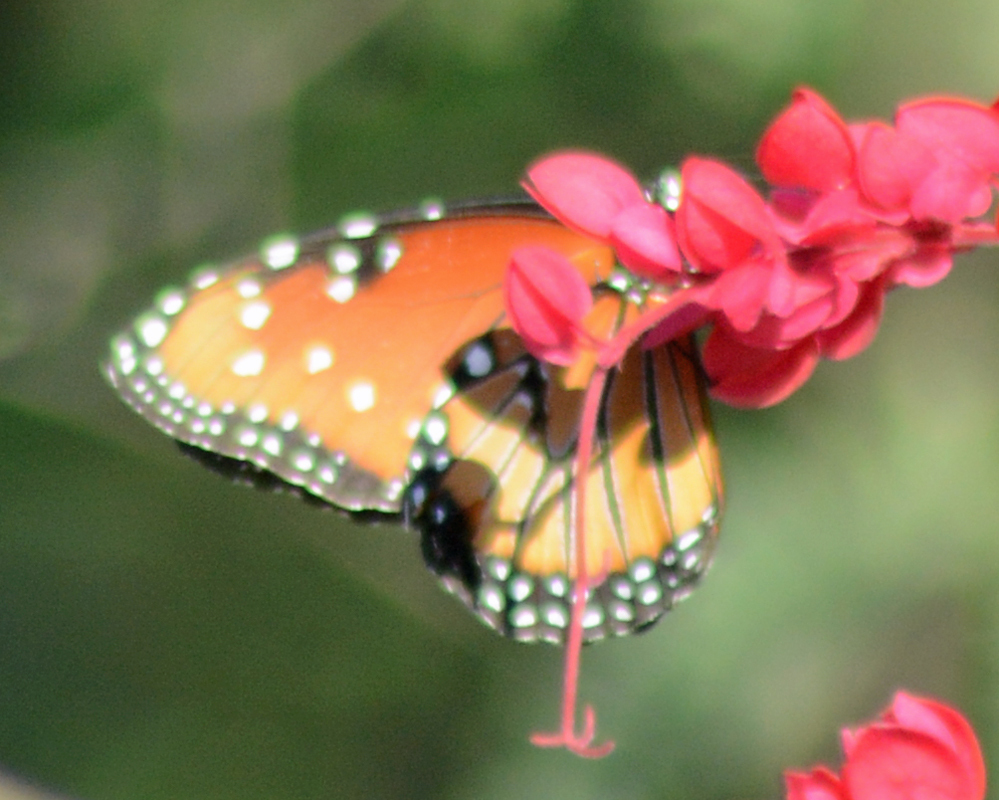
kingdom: Animalia
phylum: Arthropoda
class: Insecta
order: Lepidoptera
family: Nymphalidae
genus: Danaus
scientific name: Danaus gilippus
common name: Queen
